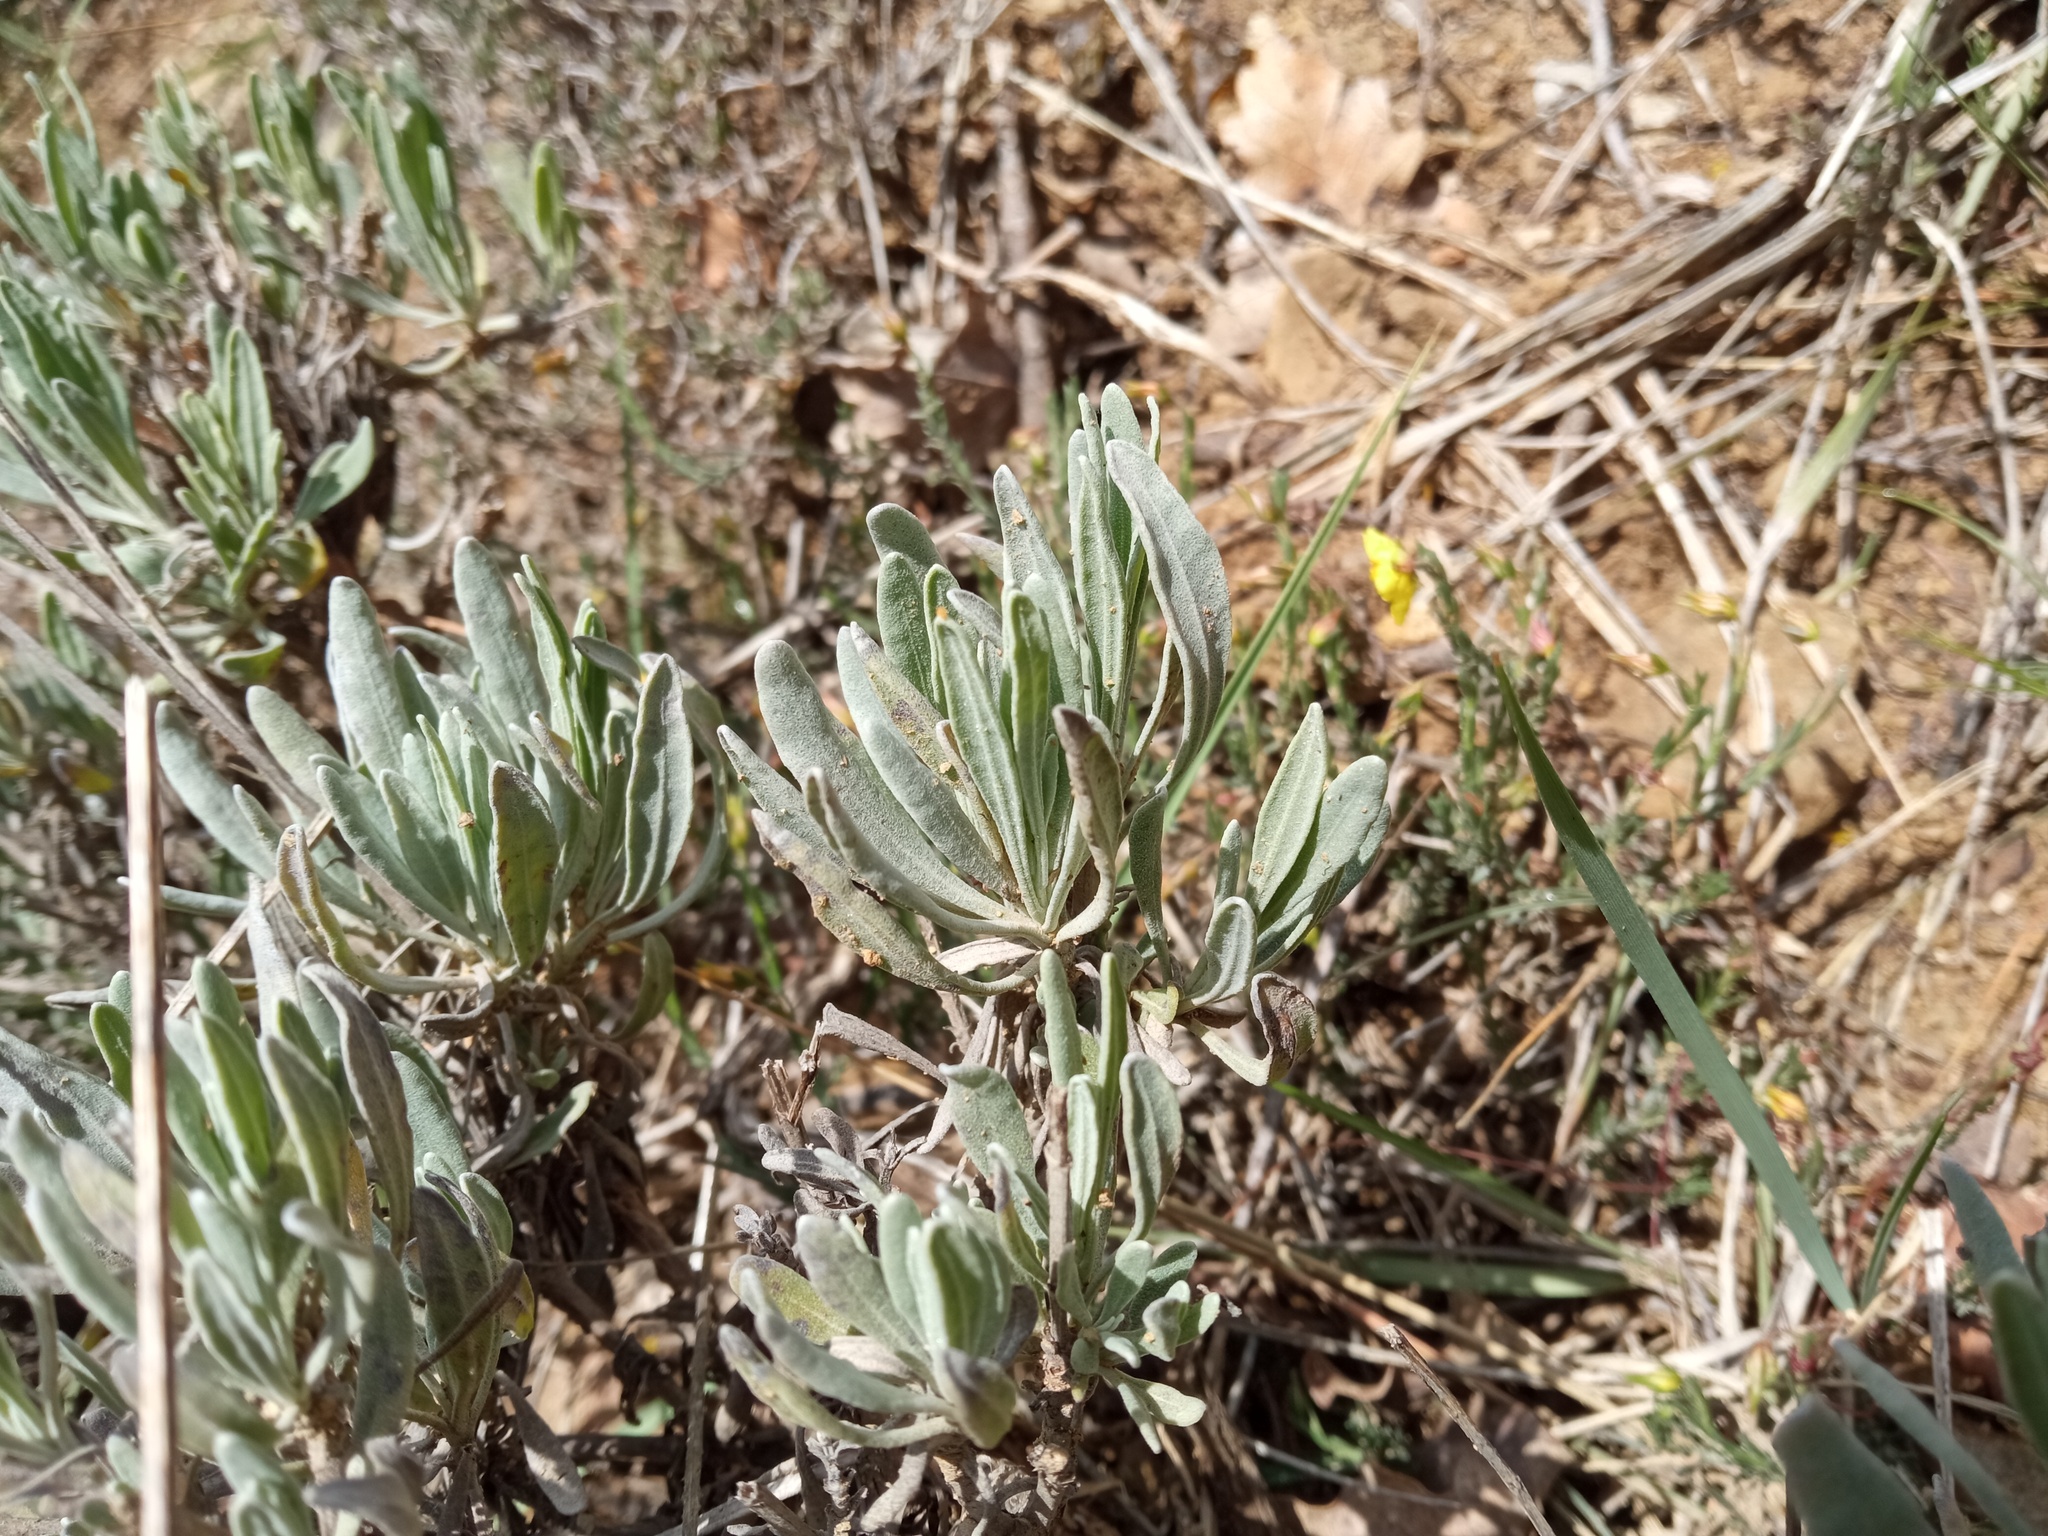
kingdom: Plantae
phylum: Tracheophyta
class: Magnoliopsida
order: Lamiales
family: Lamiaceae
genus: Lavandula
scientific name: Lavandula latifolia
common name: Spike lavendar
